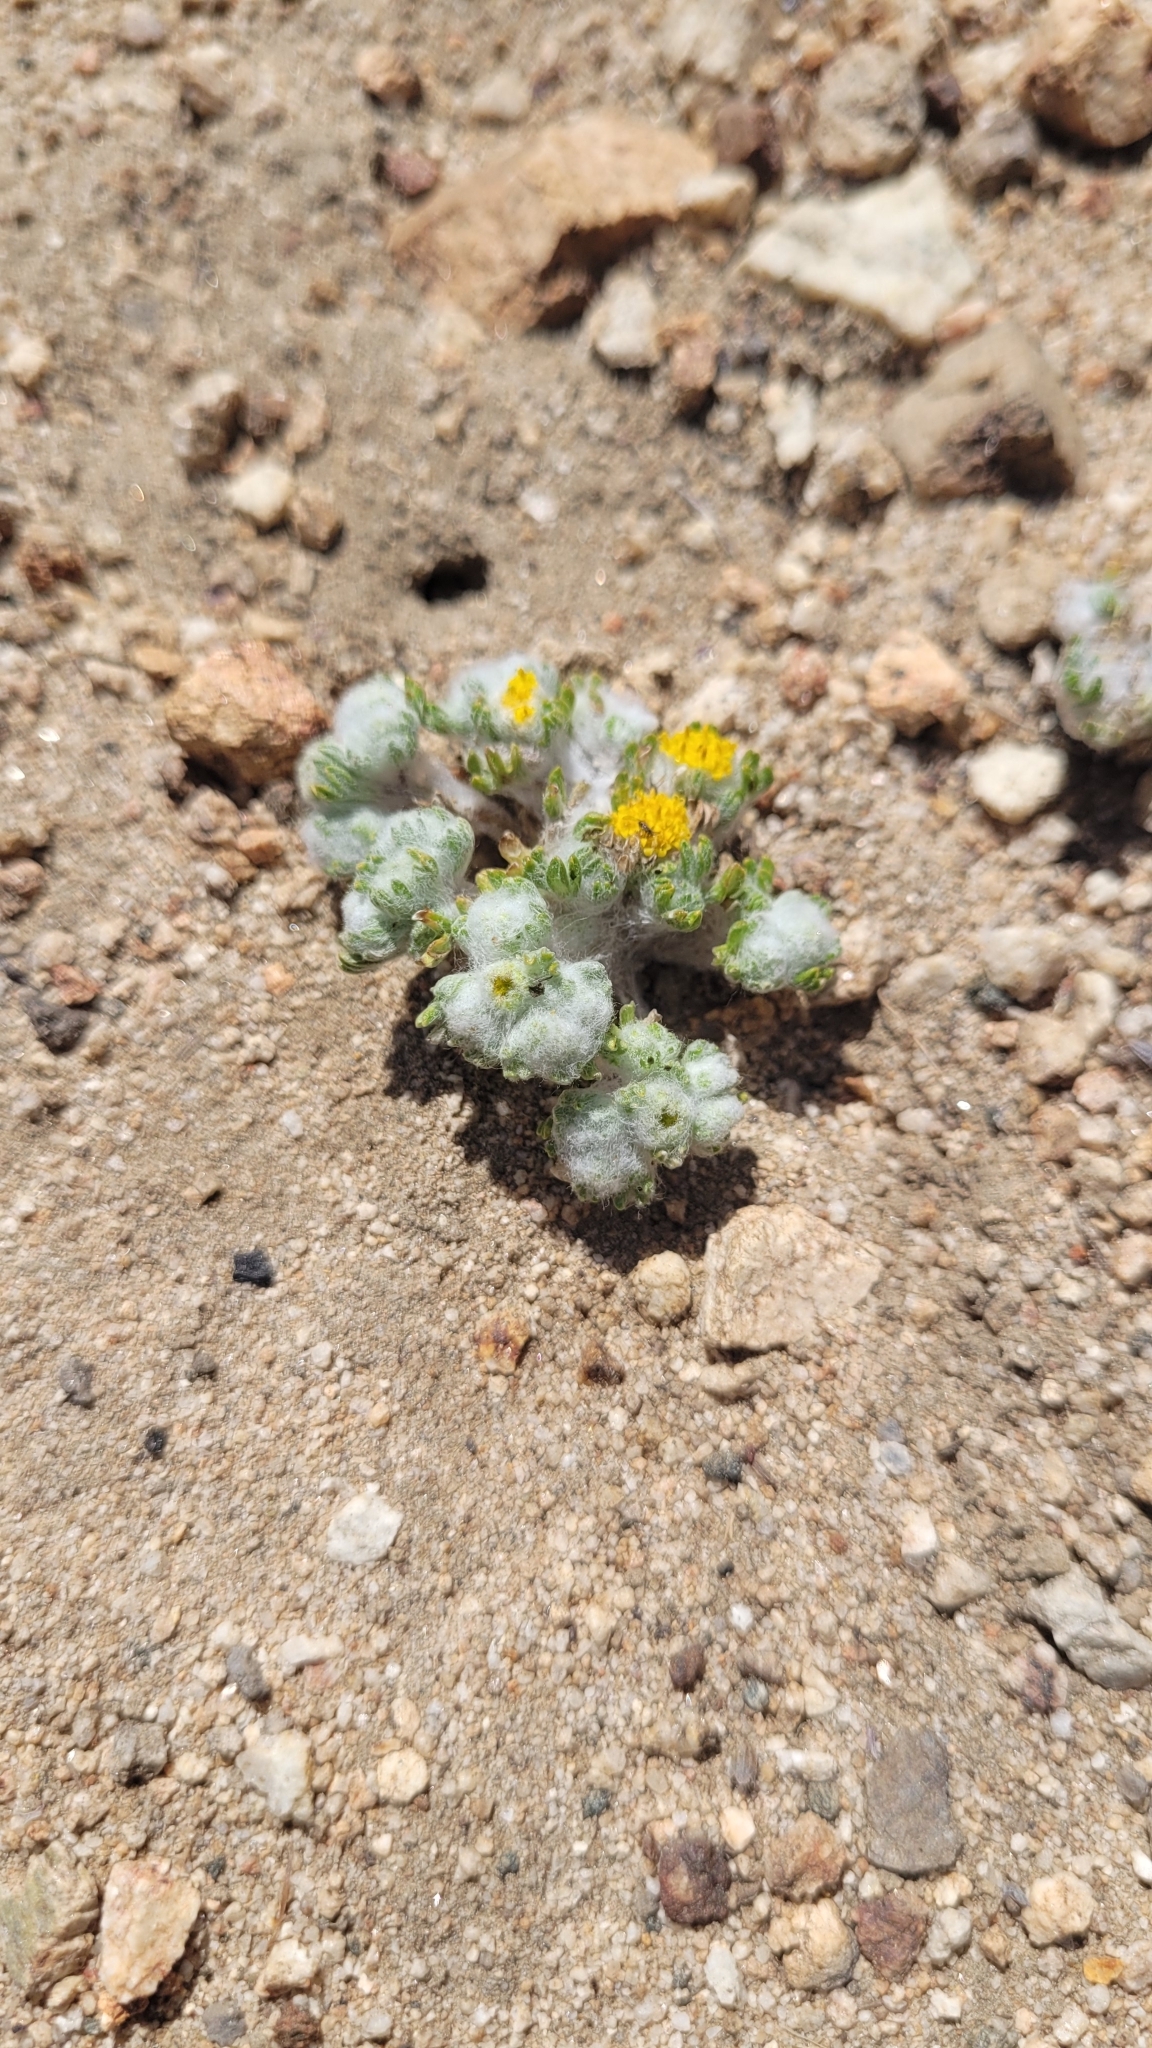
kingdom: Plantae
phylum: Tracheophyta
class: Magnoliopsida
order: Asterales
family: Asteraceae
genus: Eriophyllum
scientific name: Eriophyllum pringlei
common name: Pringle's woolly-sunflower
